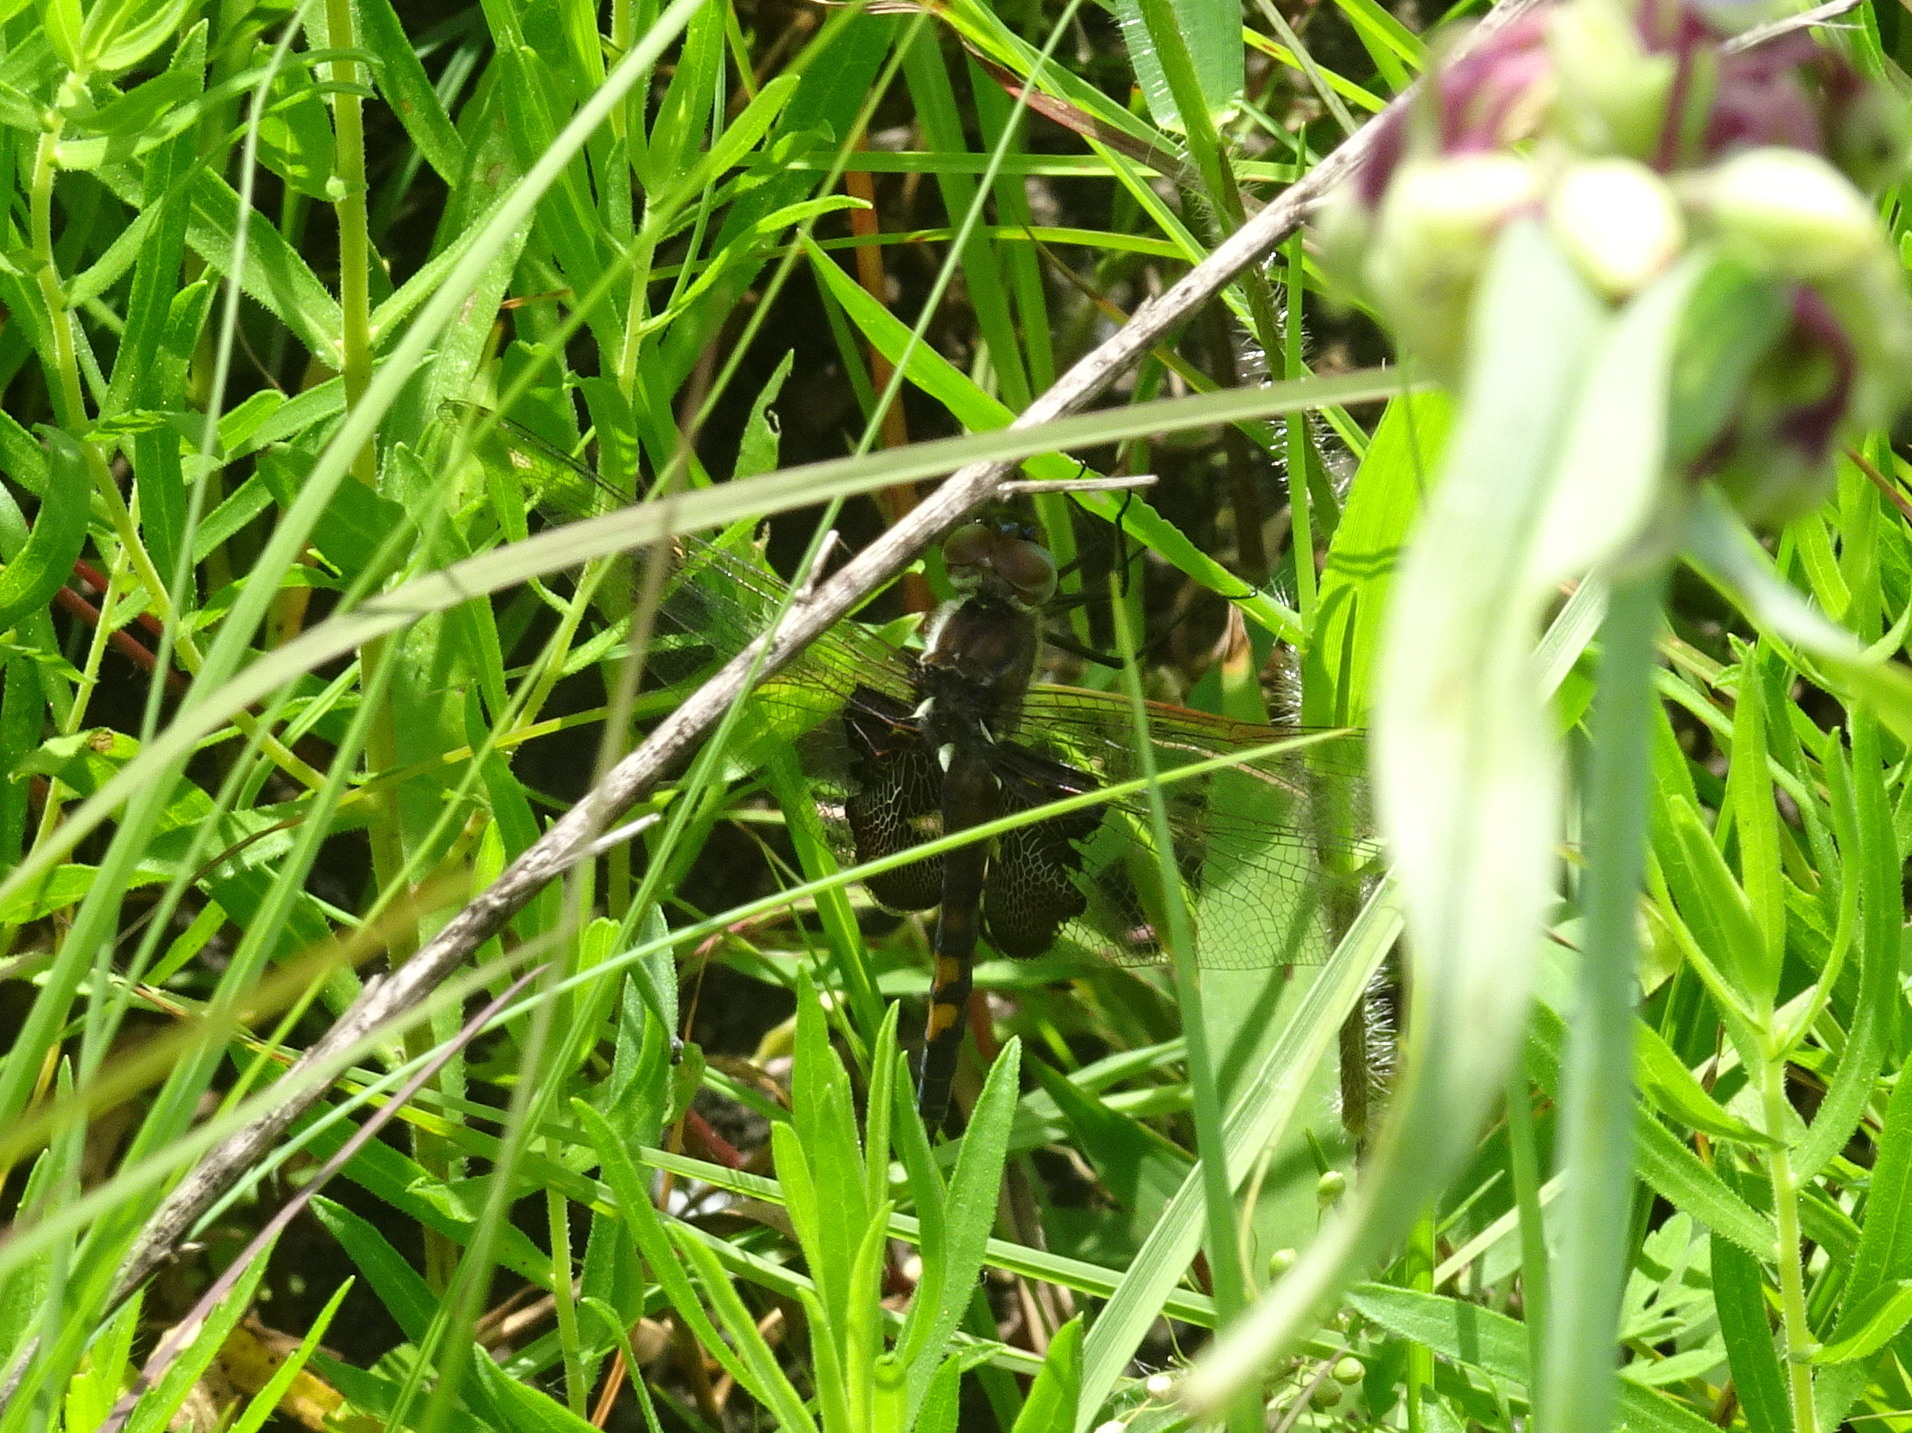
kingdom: Animalia
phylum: Arthropoda
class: Insecta
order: Odonata
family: Libellulidae
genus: Tramea
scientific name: Tramea lacerata
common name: Black saddlebags
